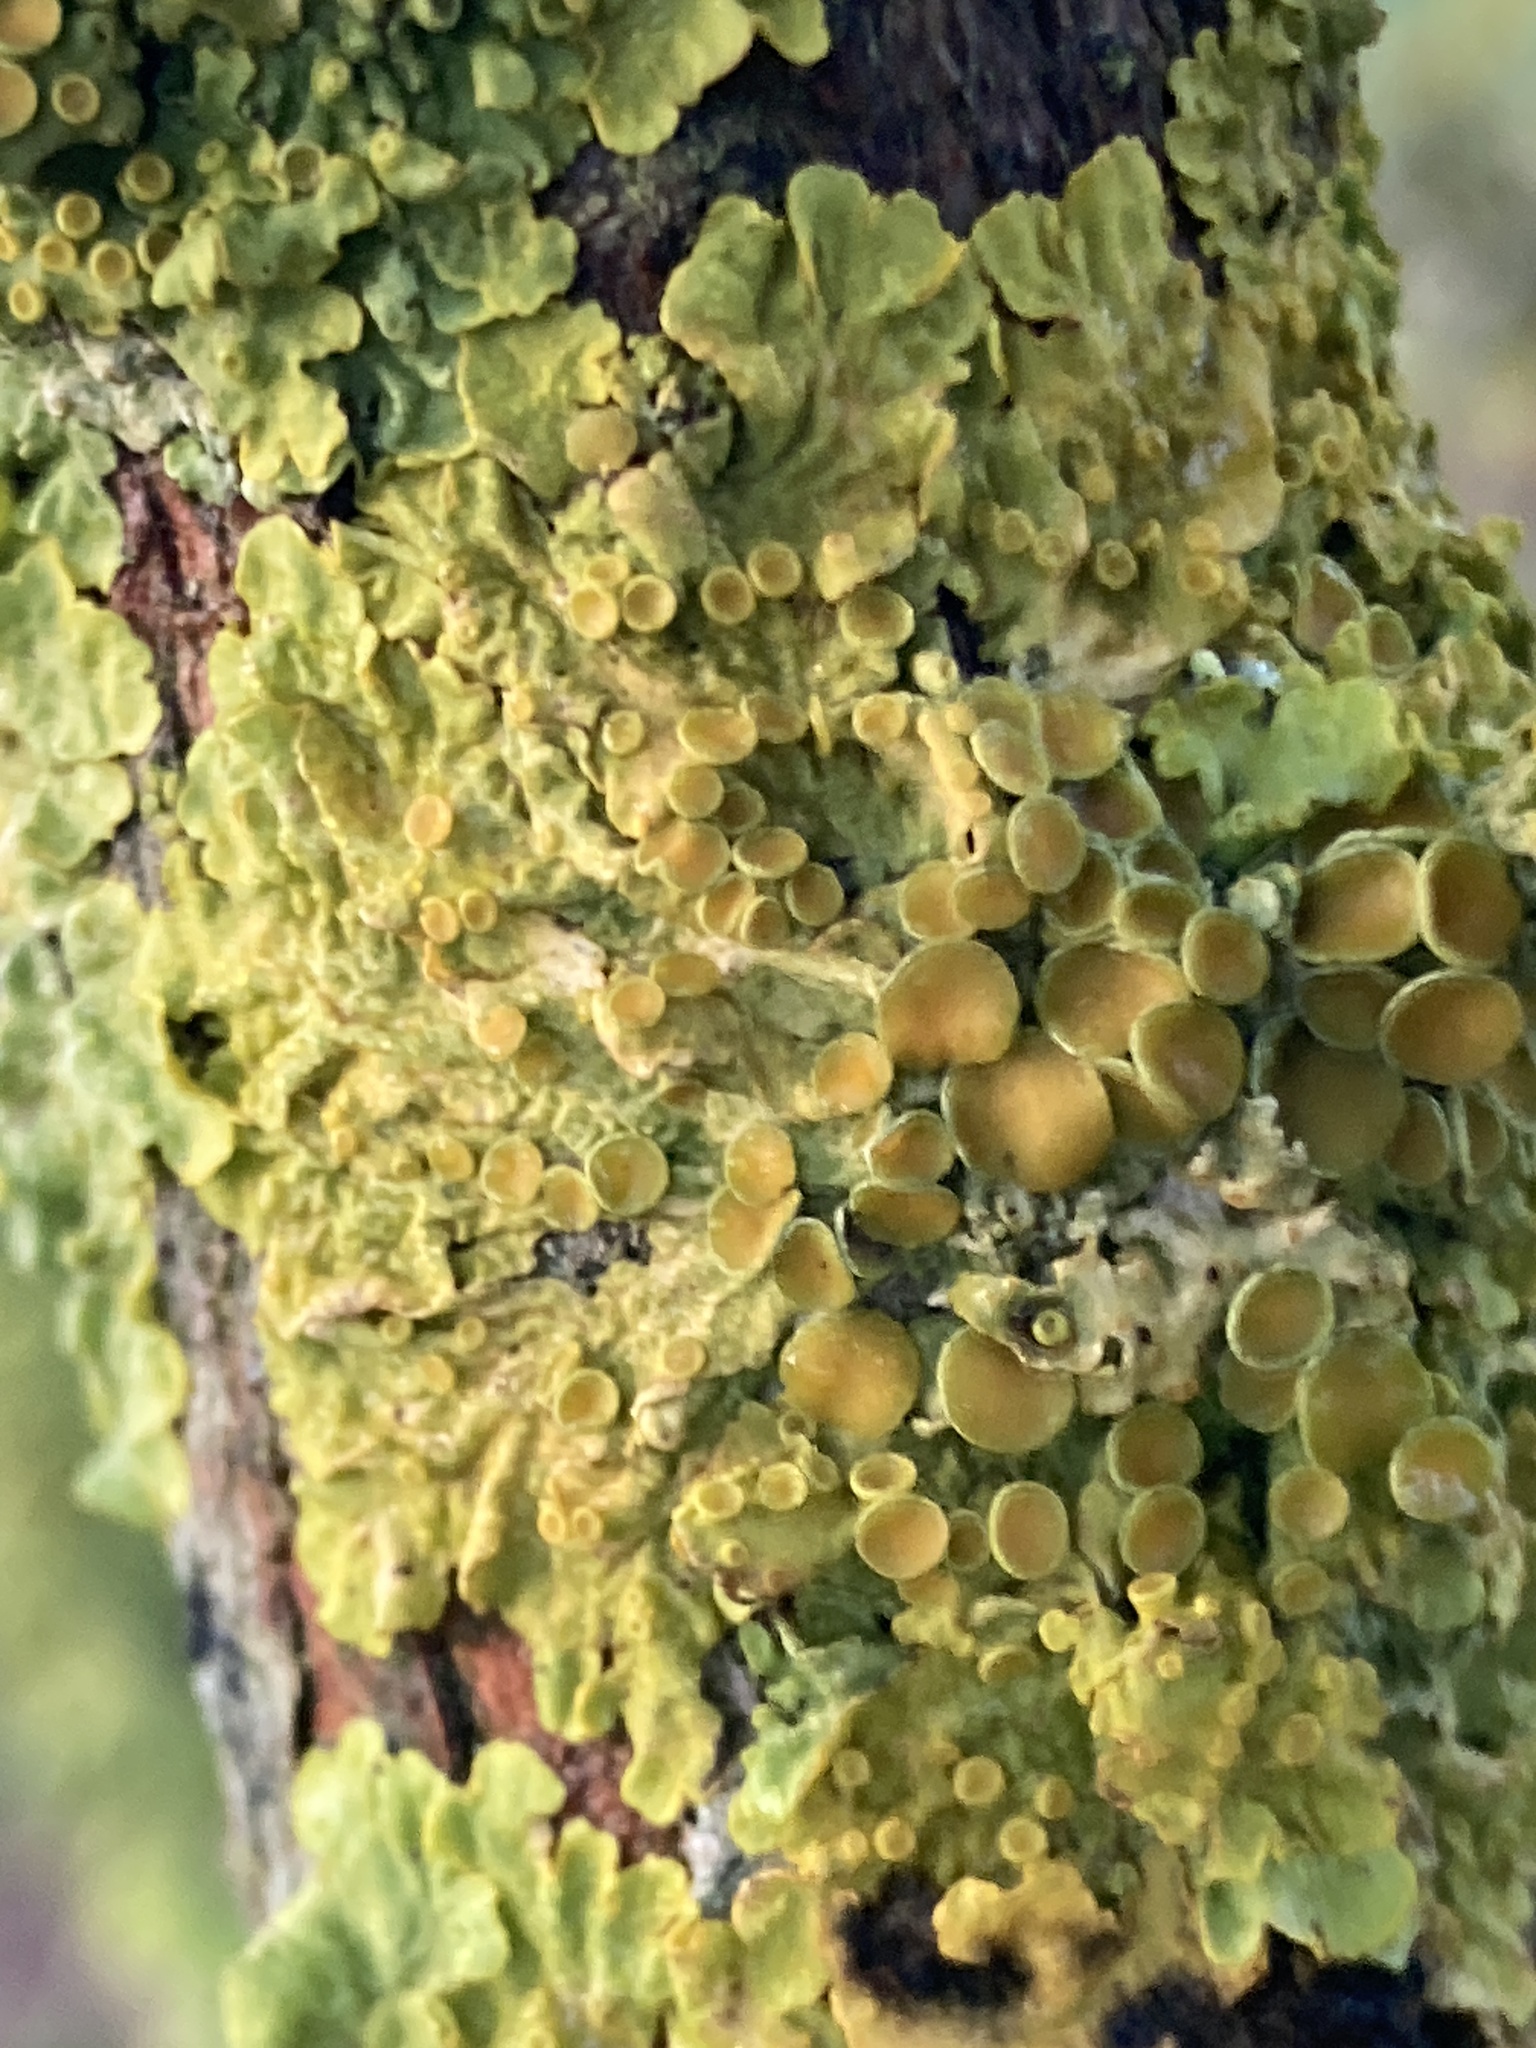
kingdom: Fungi
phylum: Ascomycota
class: Lecanoromycetes
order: Teloschistales
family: Teloschistaceae
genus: Xanthoria
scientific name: Xanthoria parietina
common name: Common orange lichen
